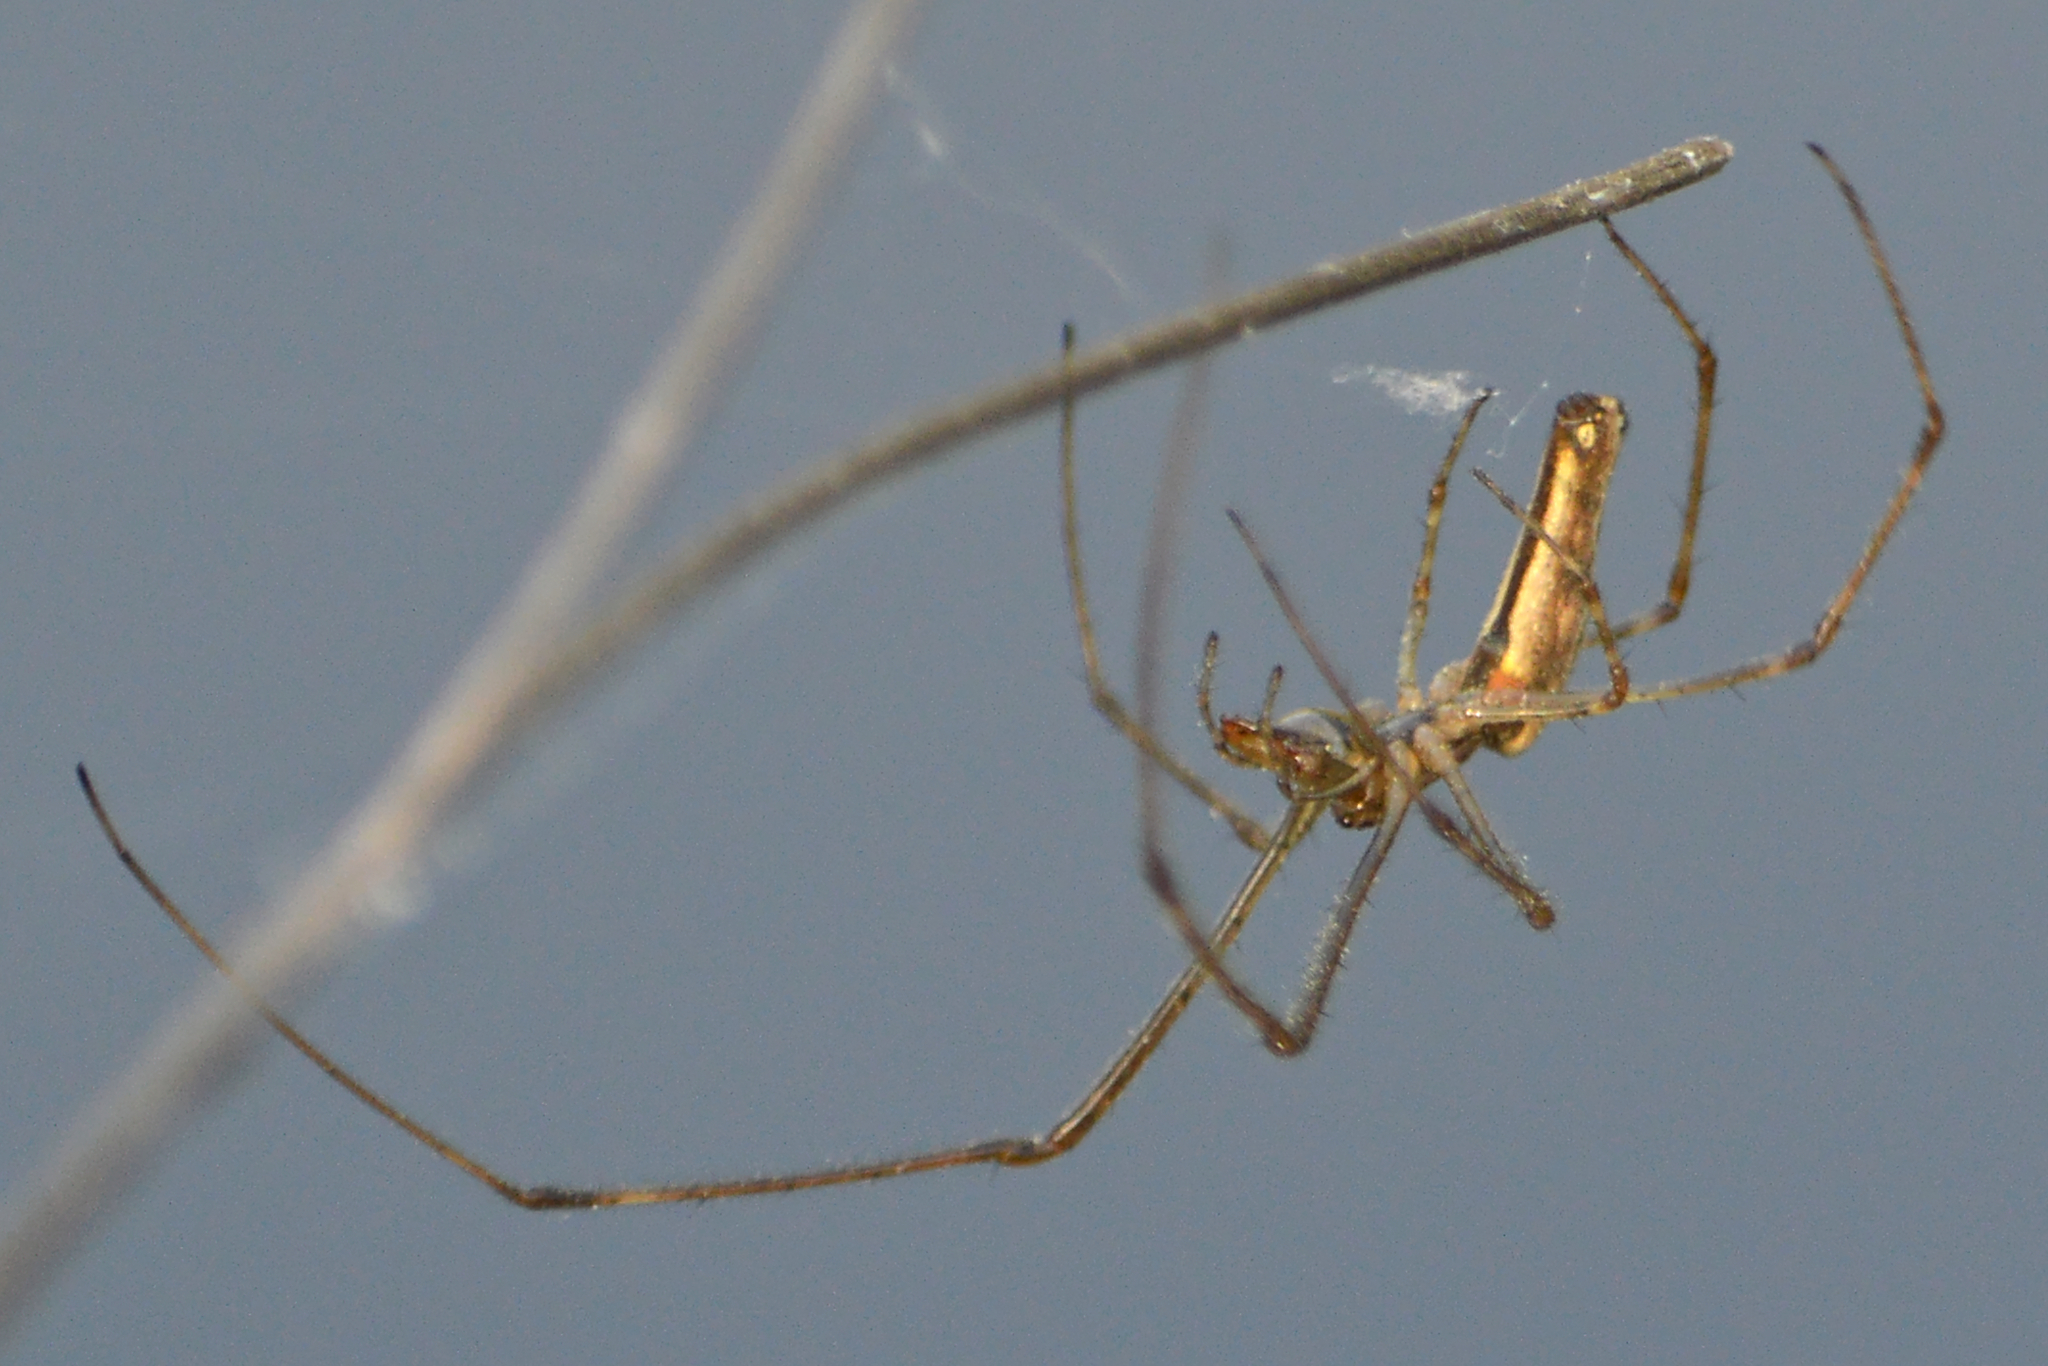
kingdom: Animalia
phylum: Arthropoda
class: Arachnida
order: Araneae
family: Tetragnathidae
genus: Tetragnatha
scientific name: Tetragnatha
